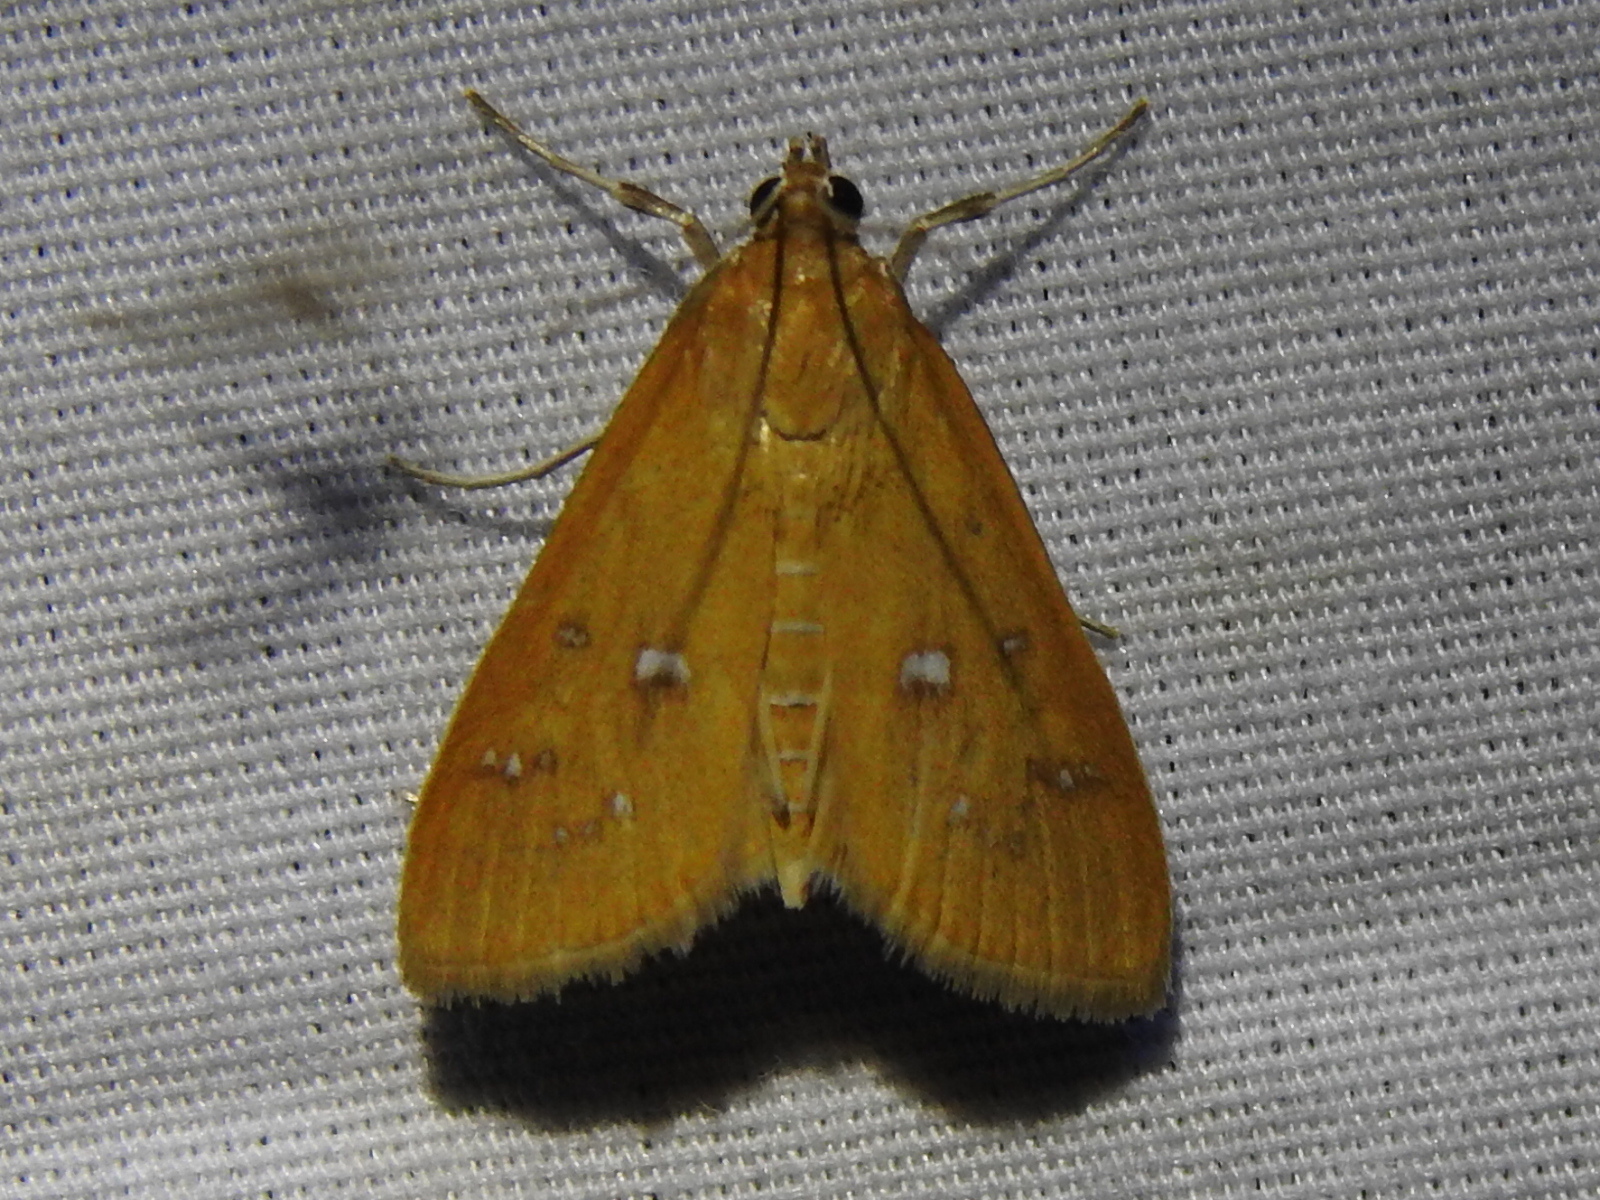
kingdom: Animalia
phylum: Arthropoda
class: Insecta
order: Lepidoptera
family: Crambidae
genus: Diastictis
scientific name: Diastictis ventralis
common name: White-spotted brown
